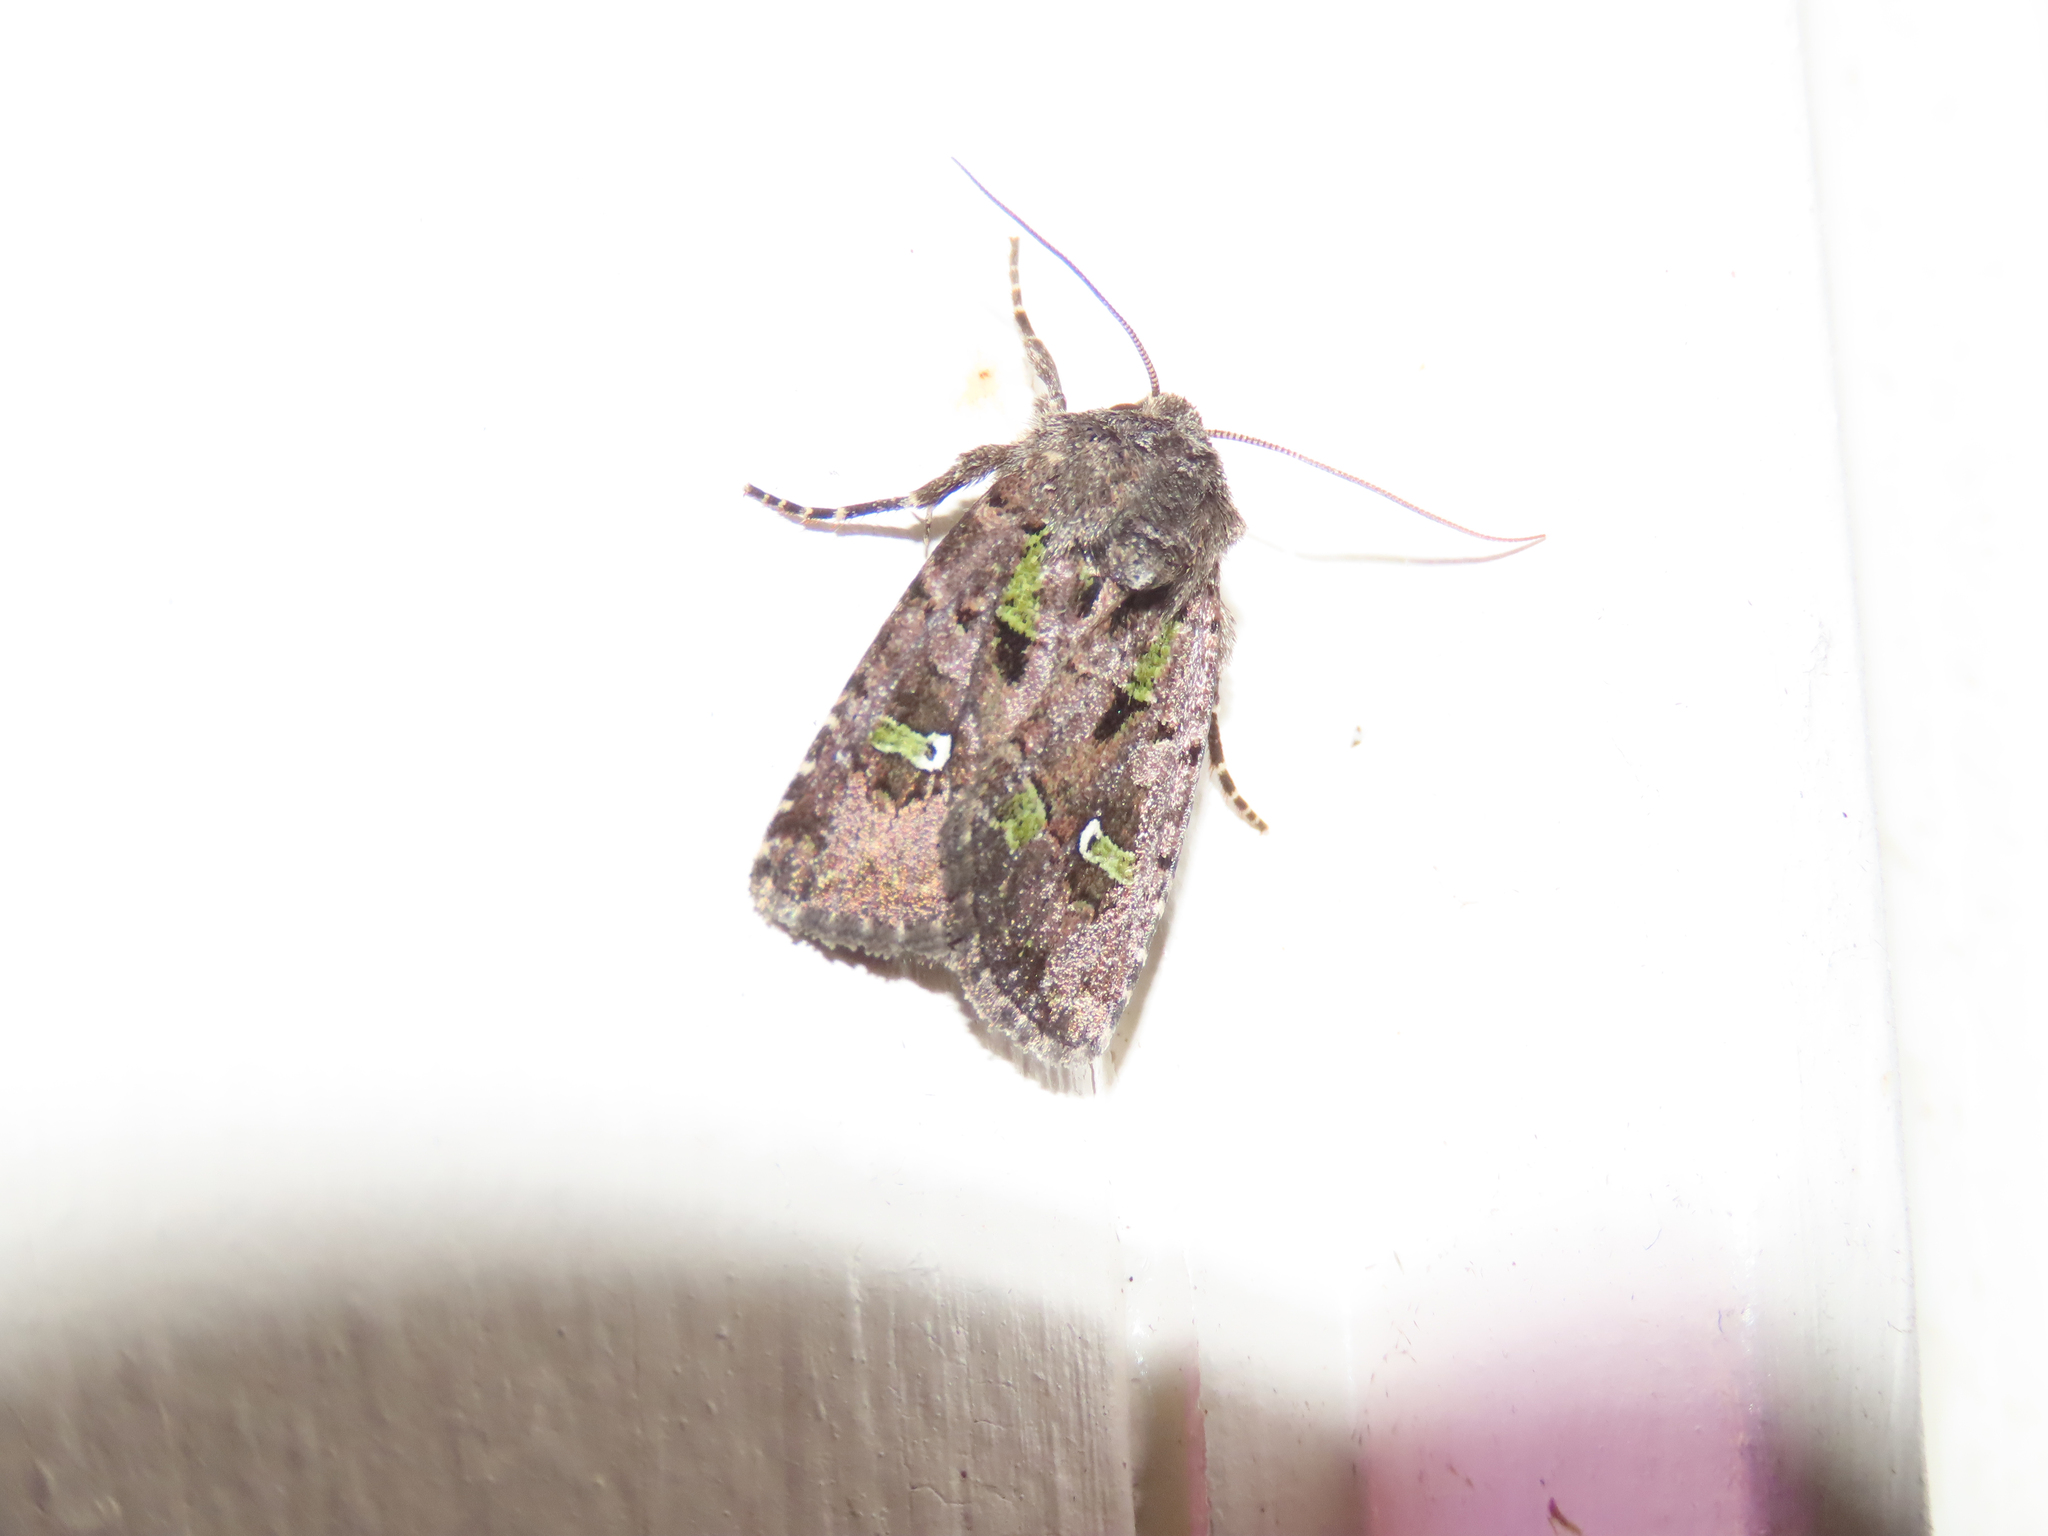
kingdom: Animalia
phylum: Arthropoda
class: Insecta
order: Lepidoptera
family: Noctuidae
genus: Lacinipolia
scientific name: Lacinipolia renigera
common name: Kidney-spotted minor
